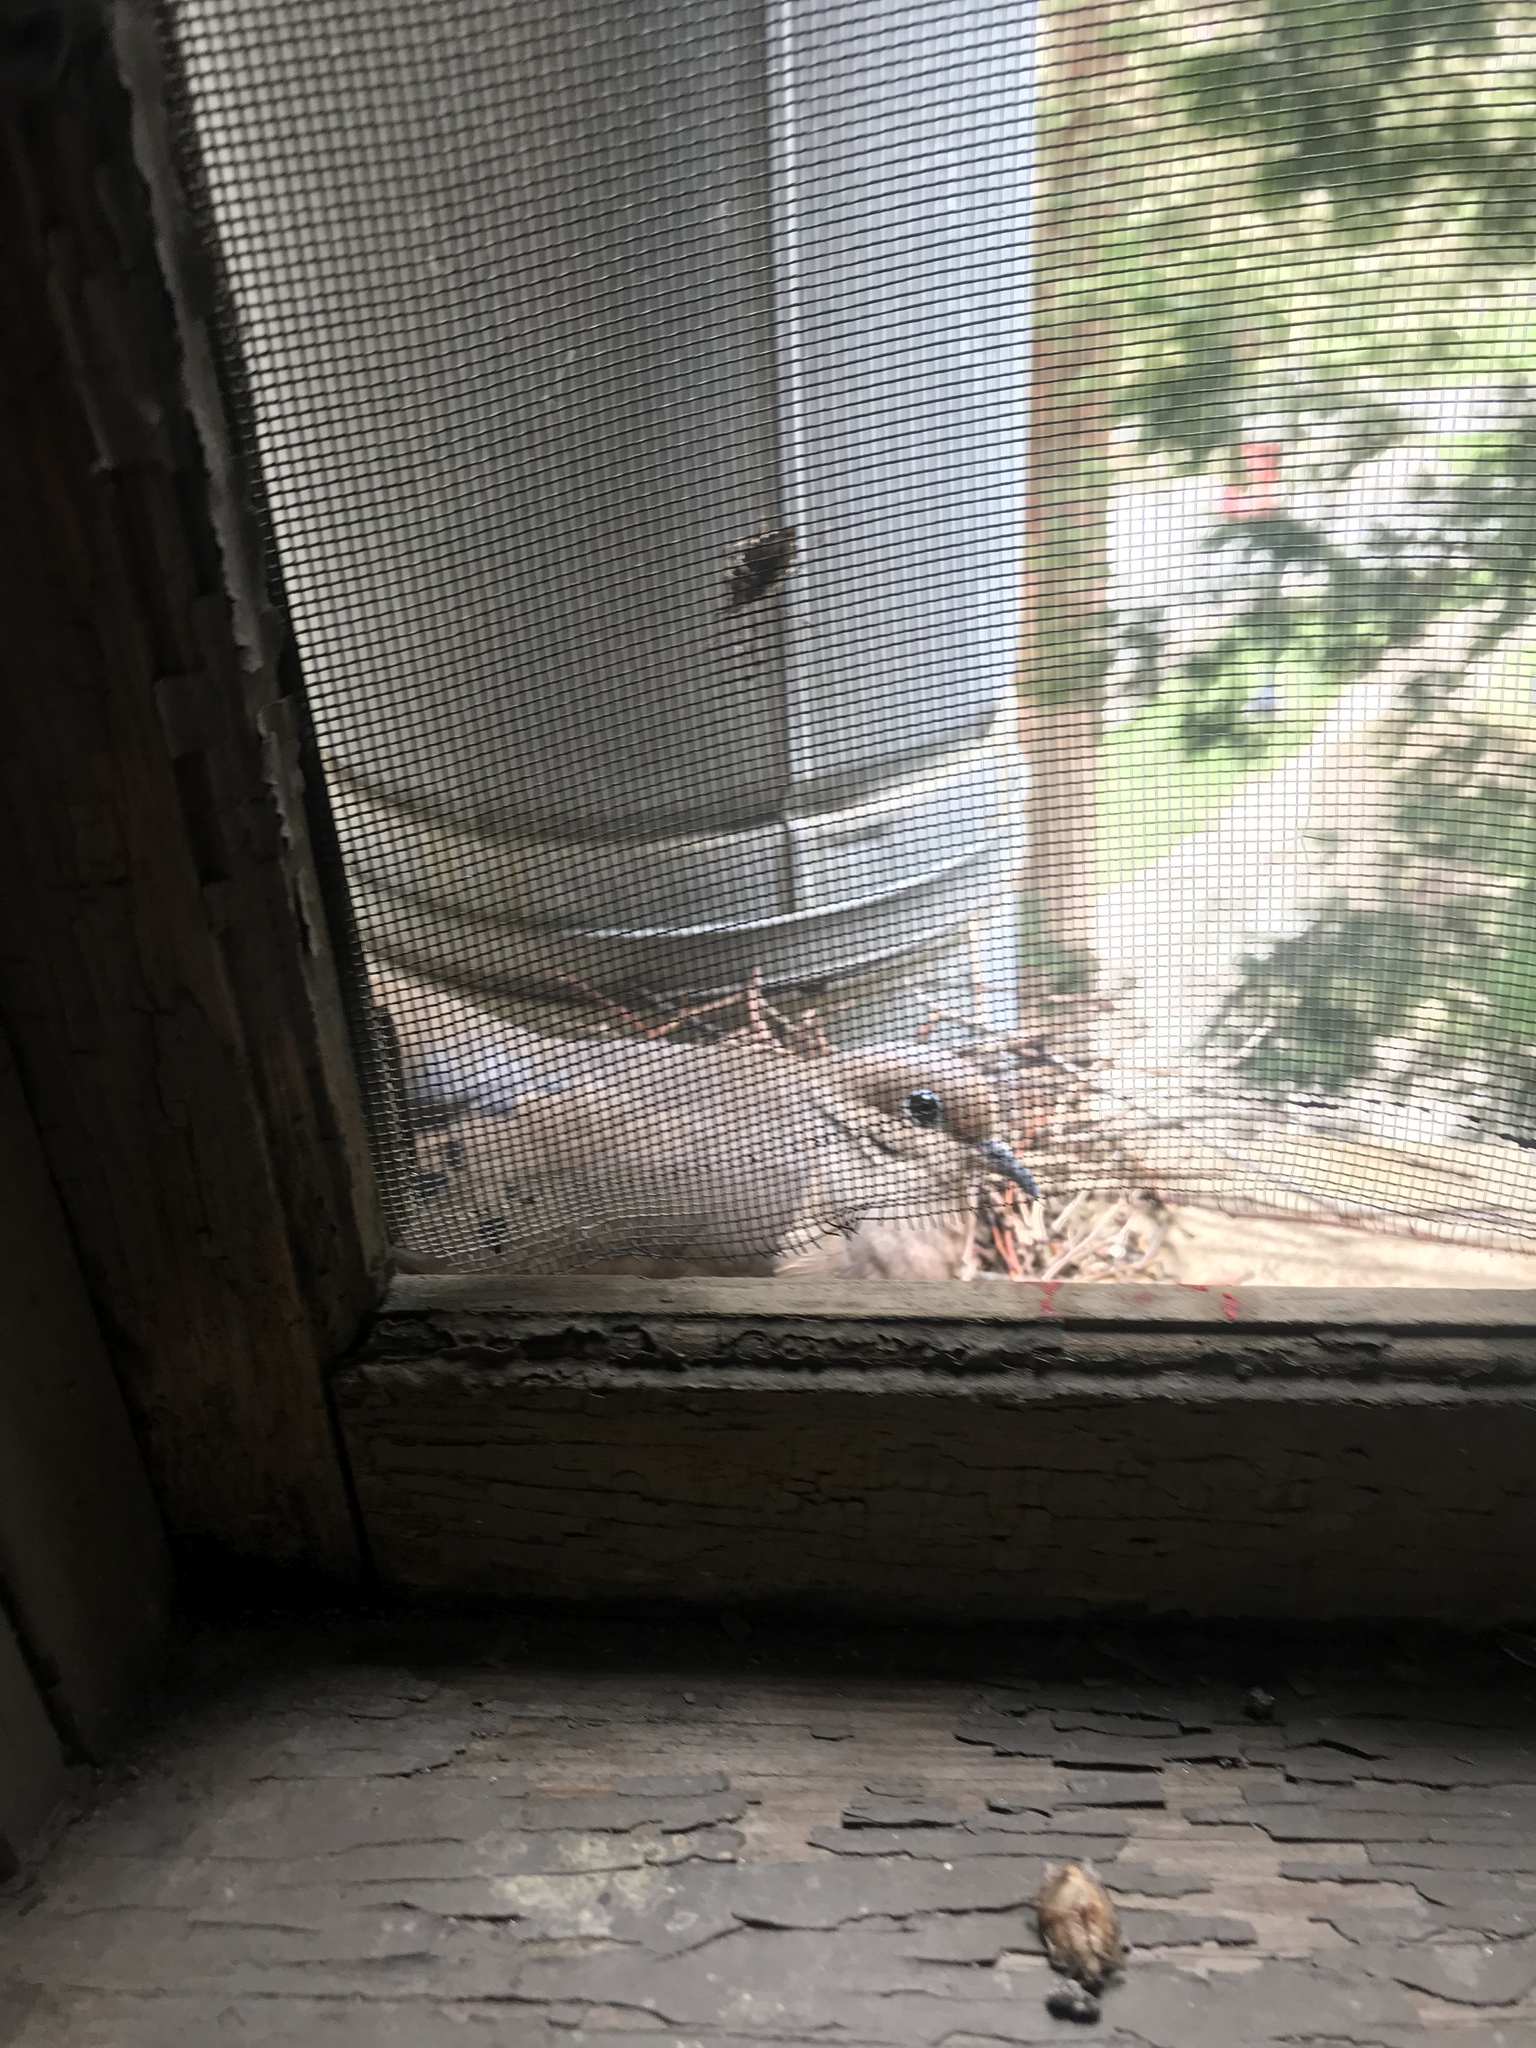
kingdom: Animalia
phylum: Chordata
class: Aves
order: Columbiformes
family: Columbidae
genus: Zenaida
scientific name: Zenaida macroura
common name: Mourning dove
